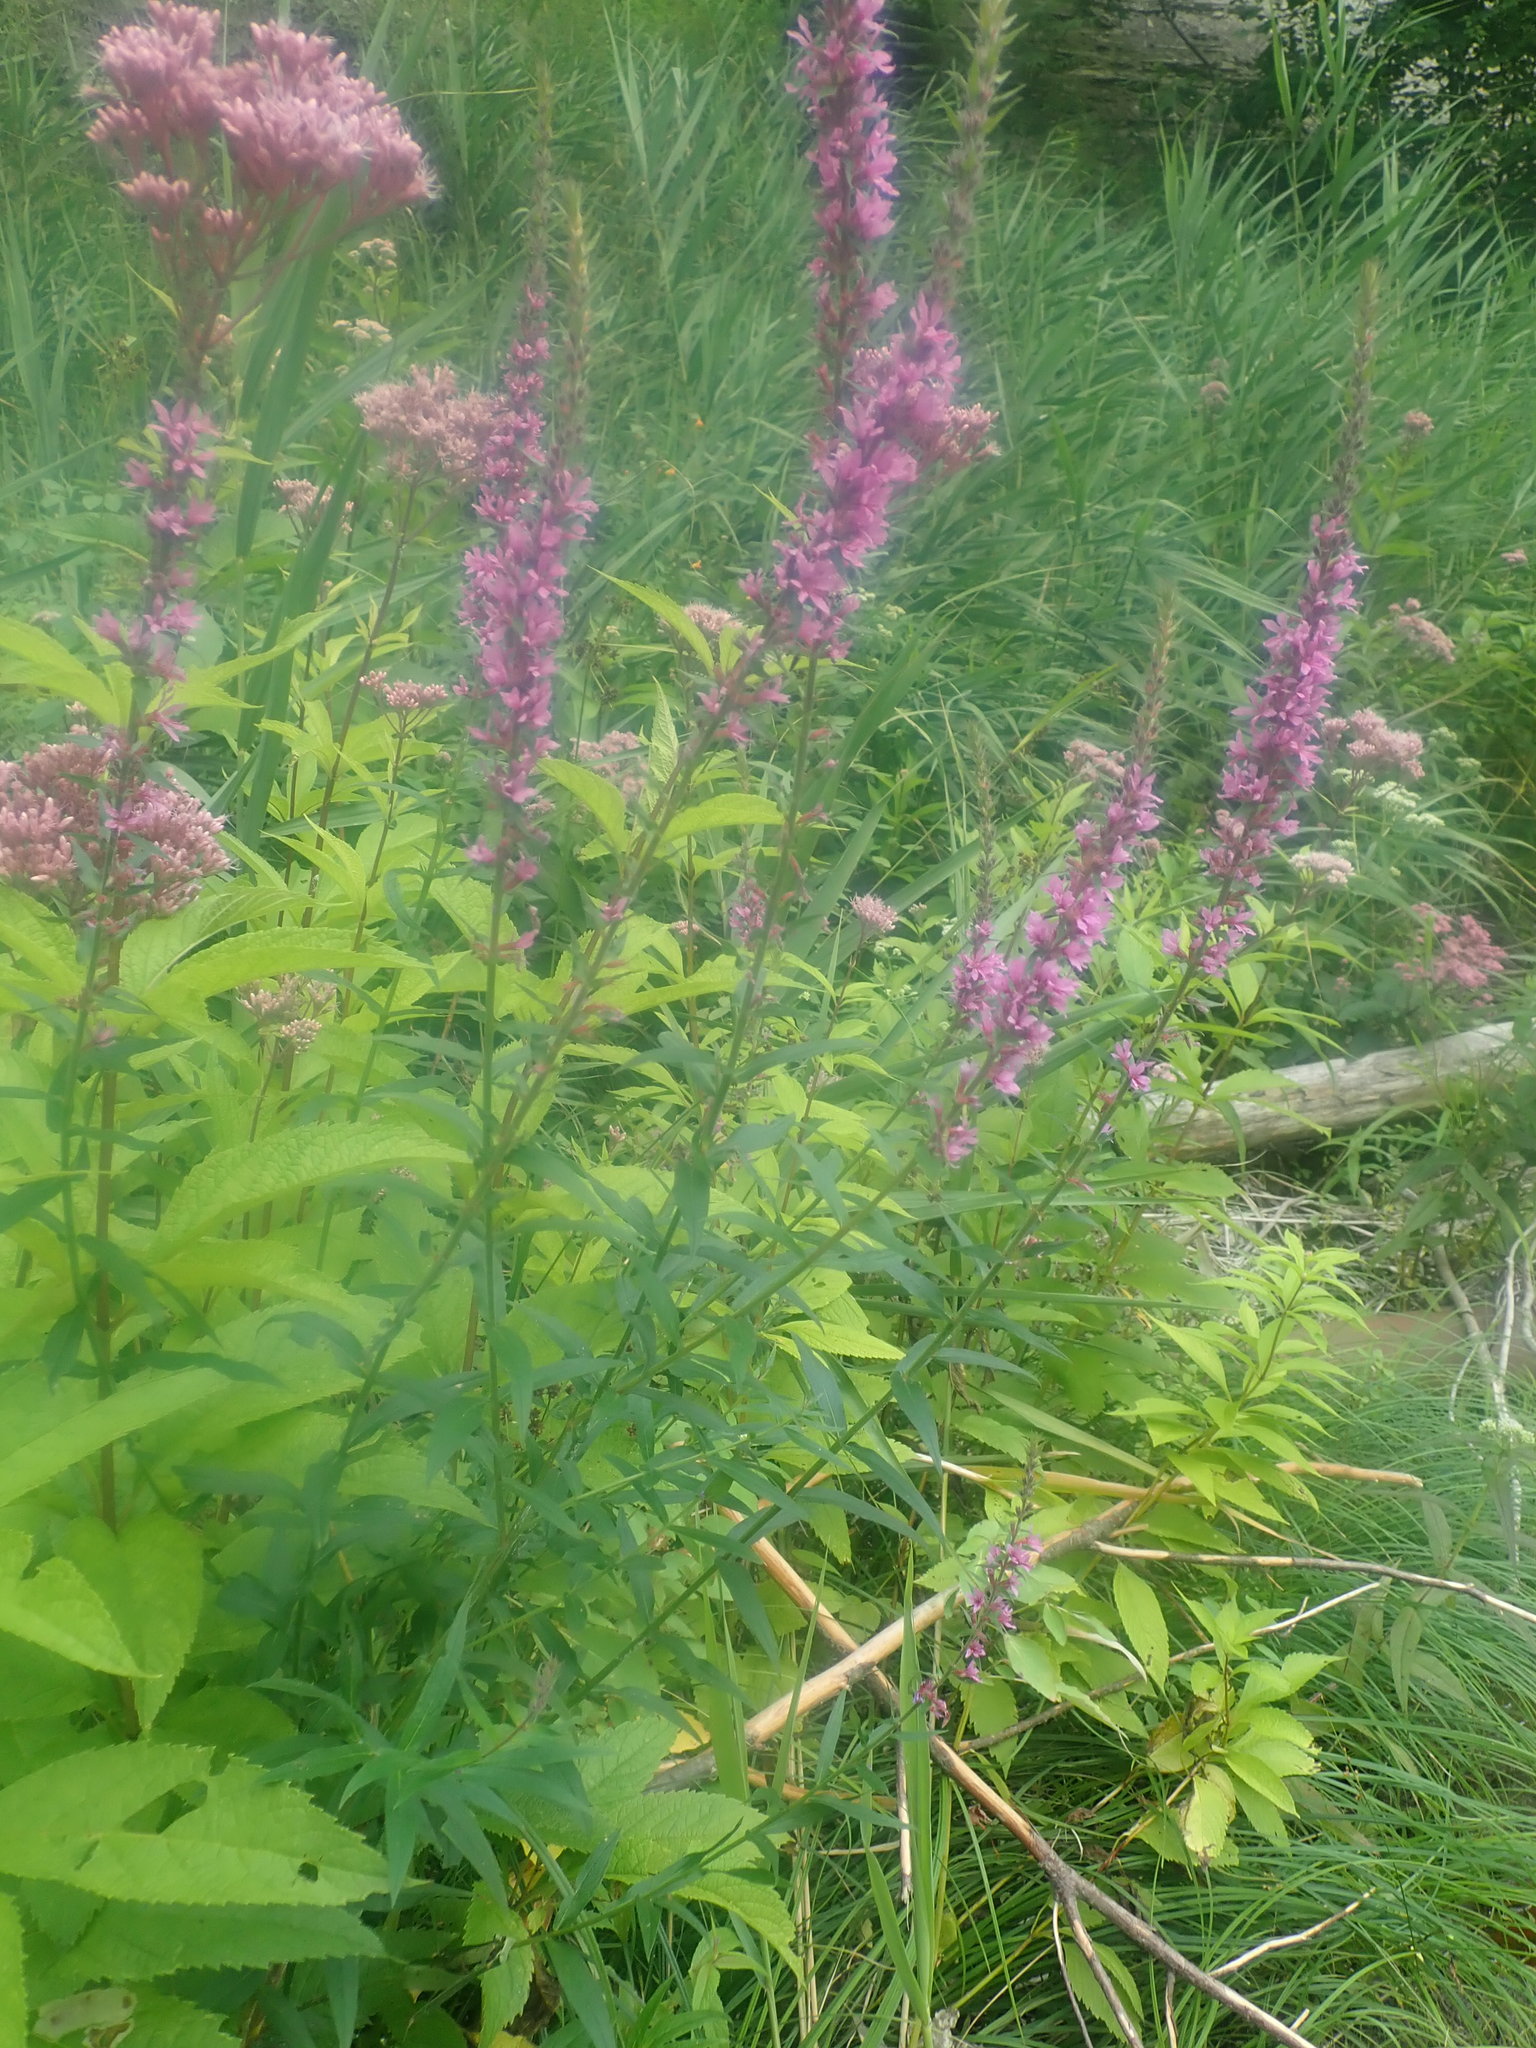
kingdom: Plantae
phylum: Tracheophyta
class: Magnoliopsida
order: Myrtales
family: Lythraceae
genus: Lythrum
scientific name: Lythrum salicaria
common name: Purple loosestrife
